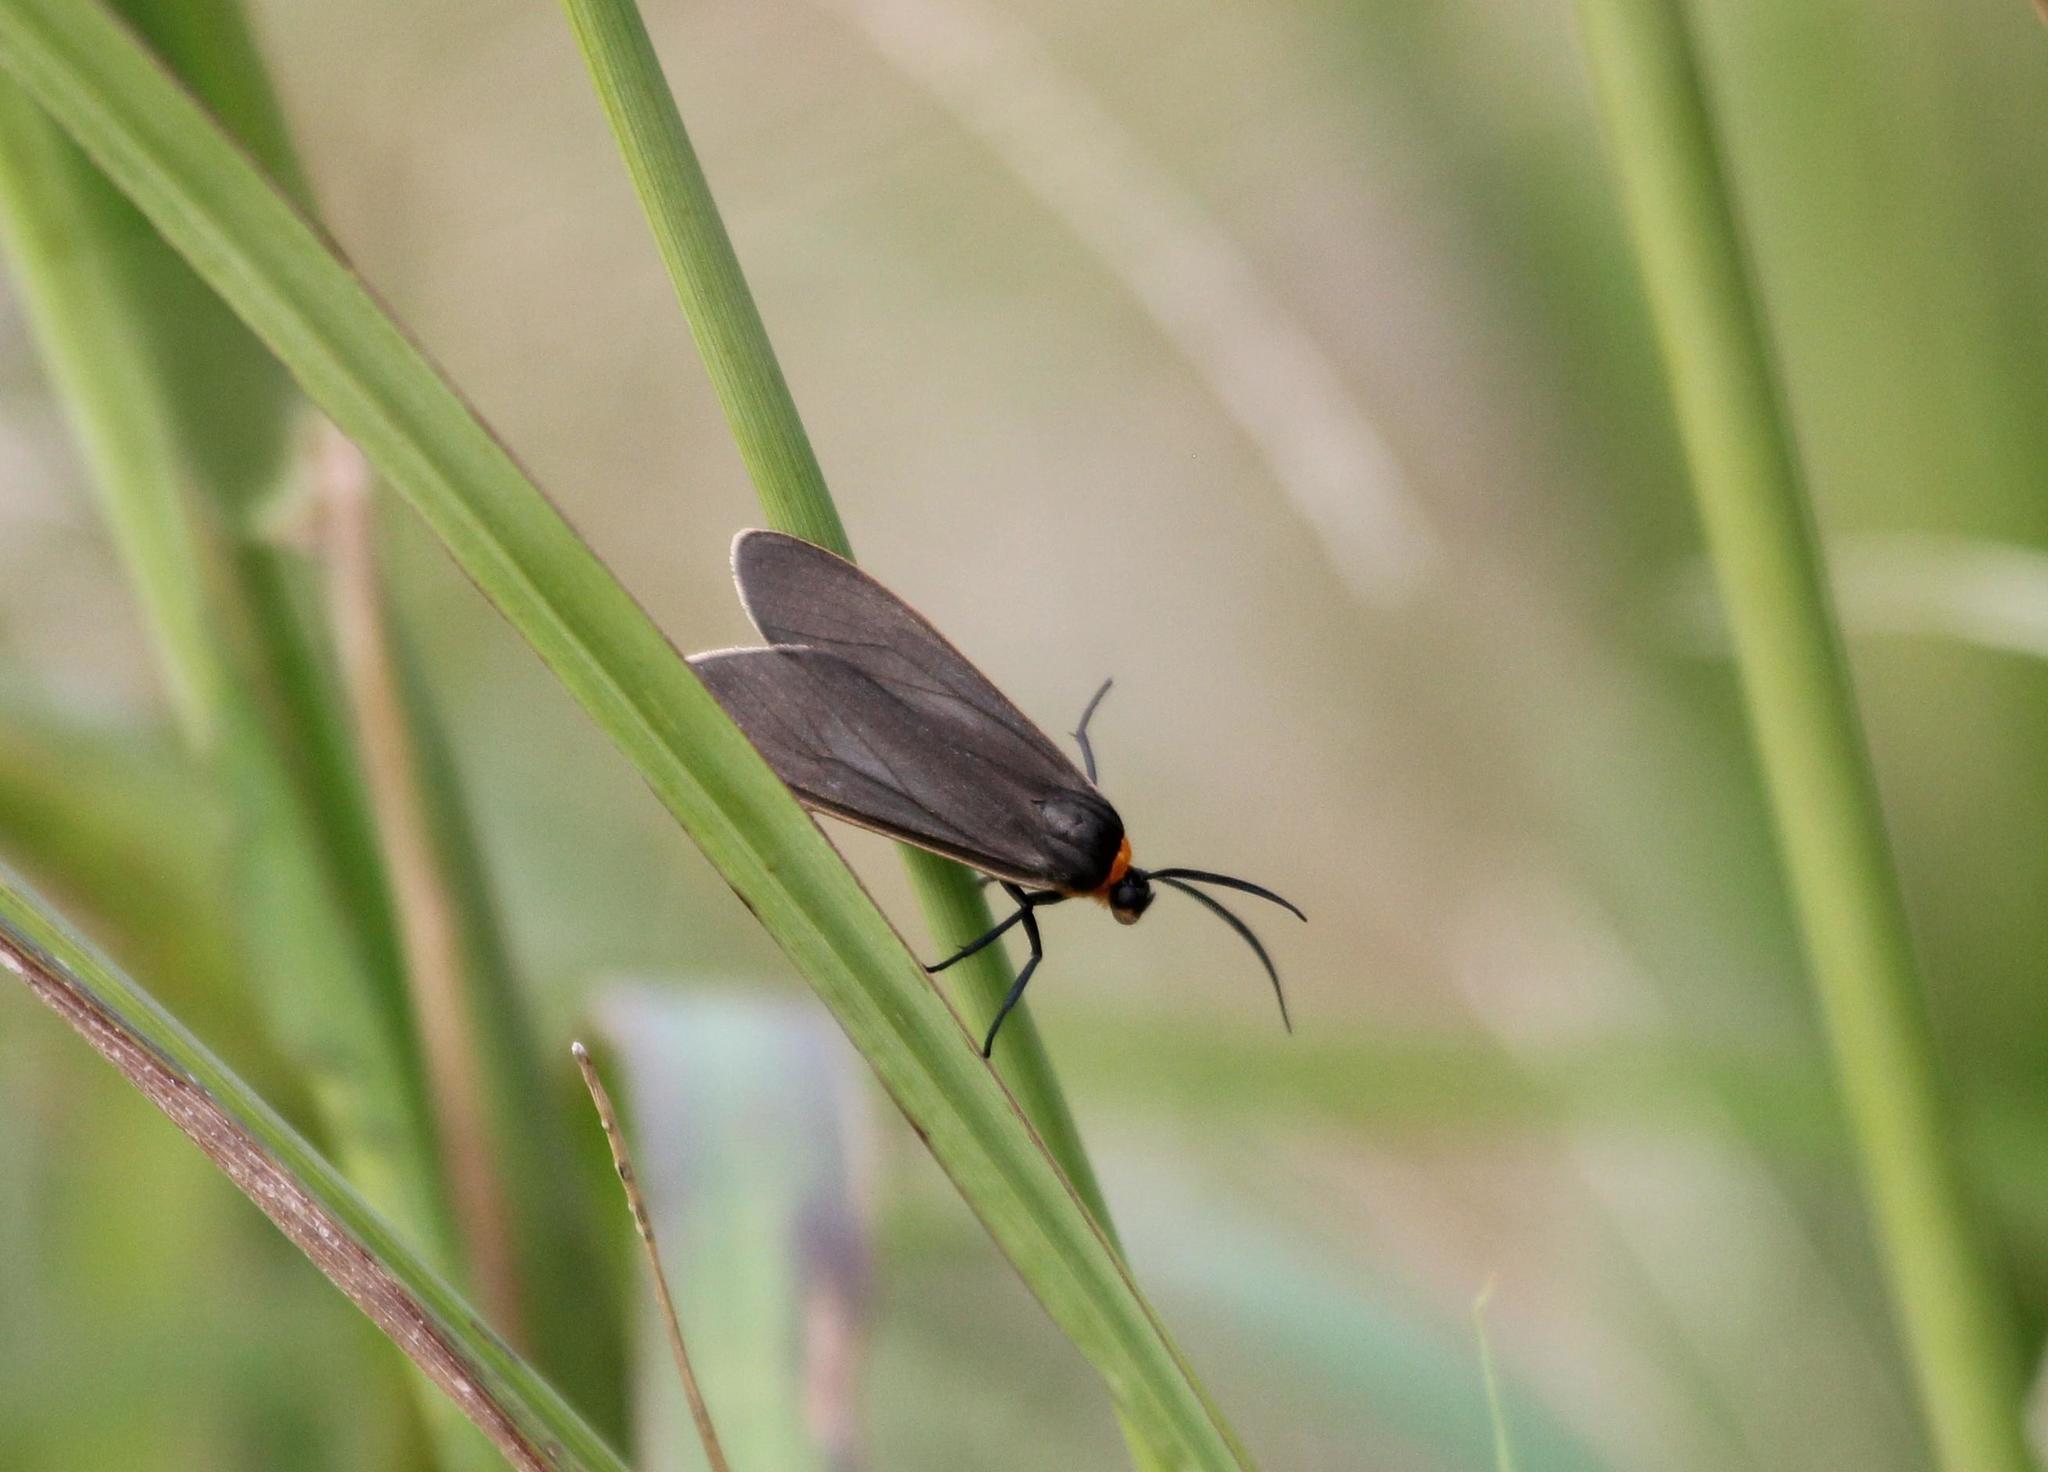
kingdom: Animalia
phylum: Arthropoda
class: Insecta
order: Lepidoptera
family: Erebidae
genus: Cisseps
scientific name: Cisseps fulvicollis
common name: Yellow-collared scape moth
